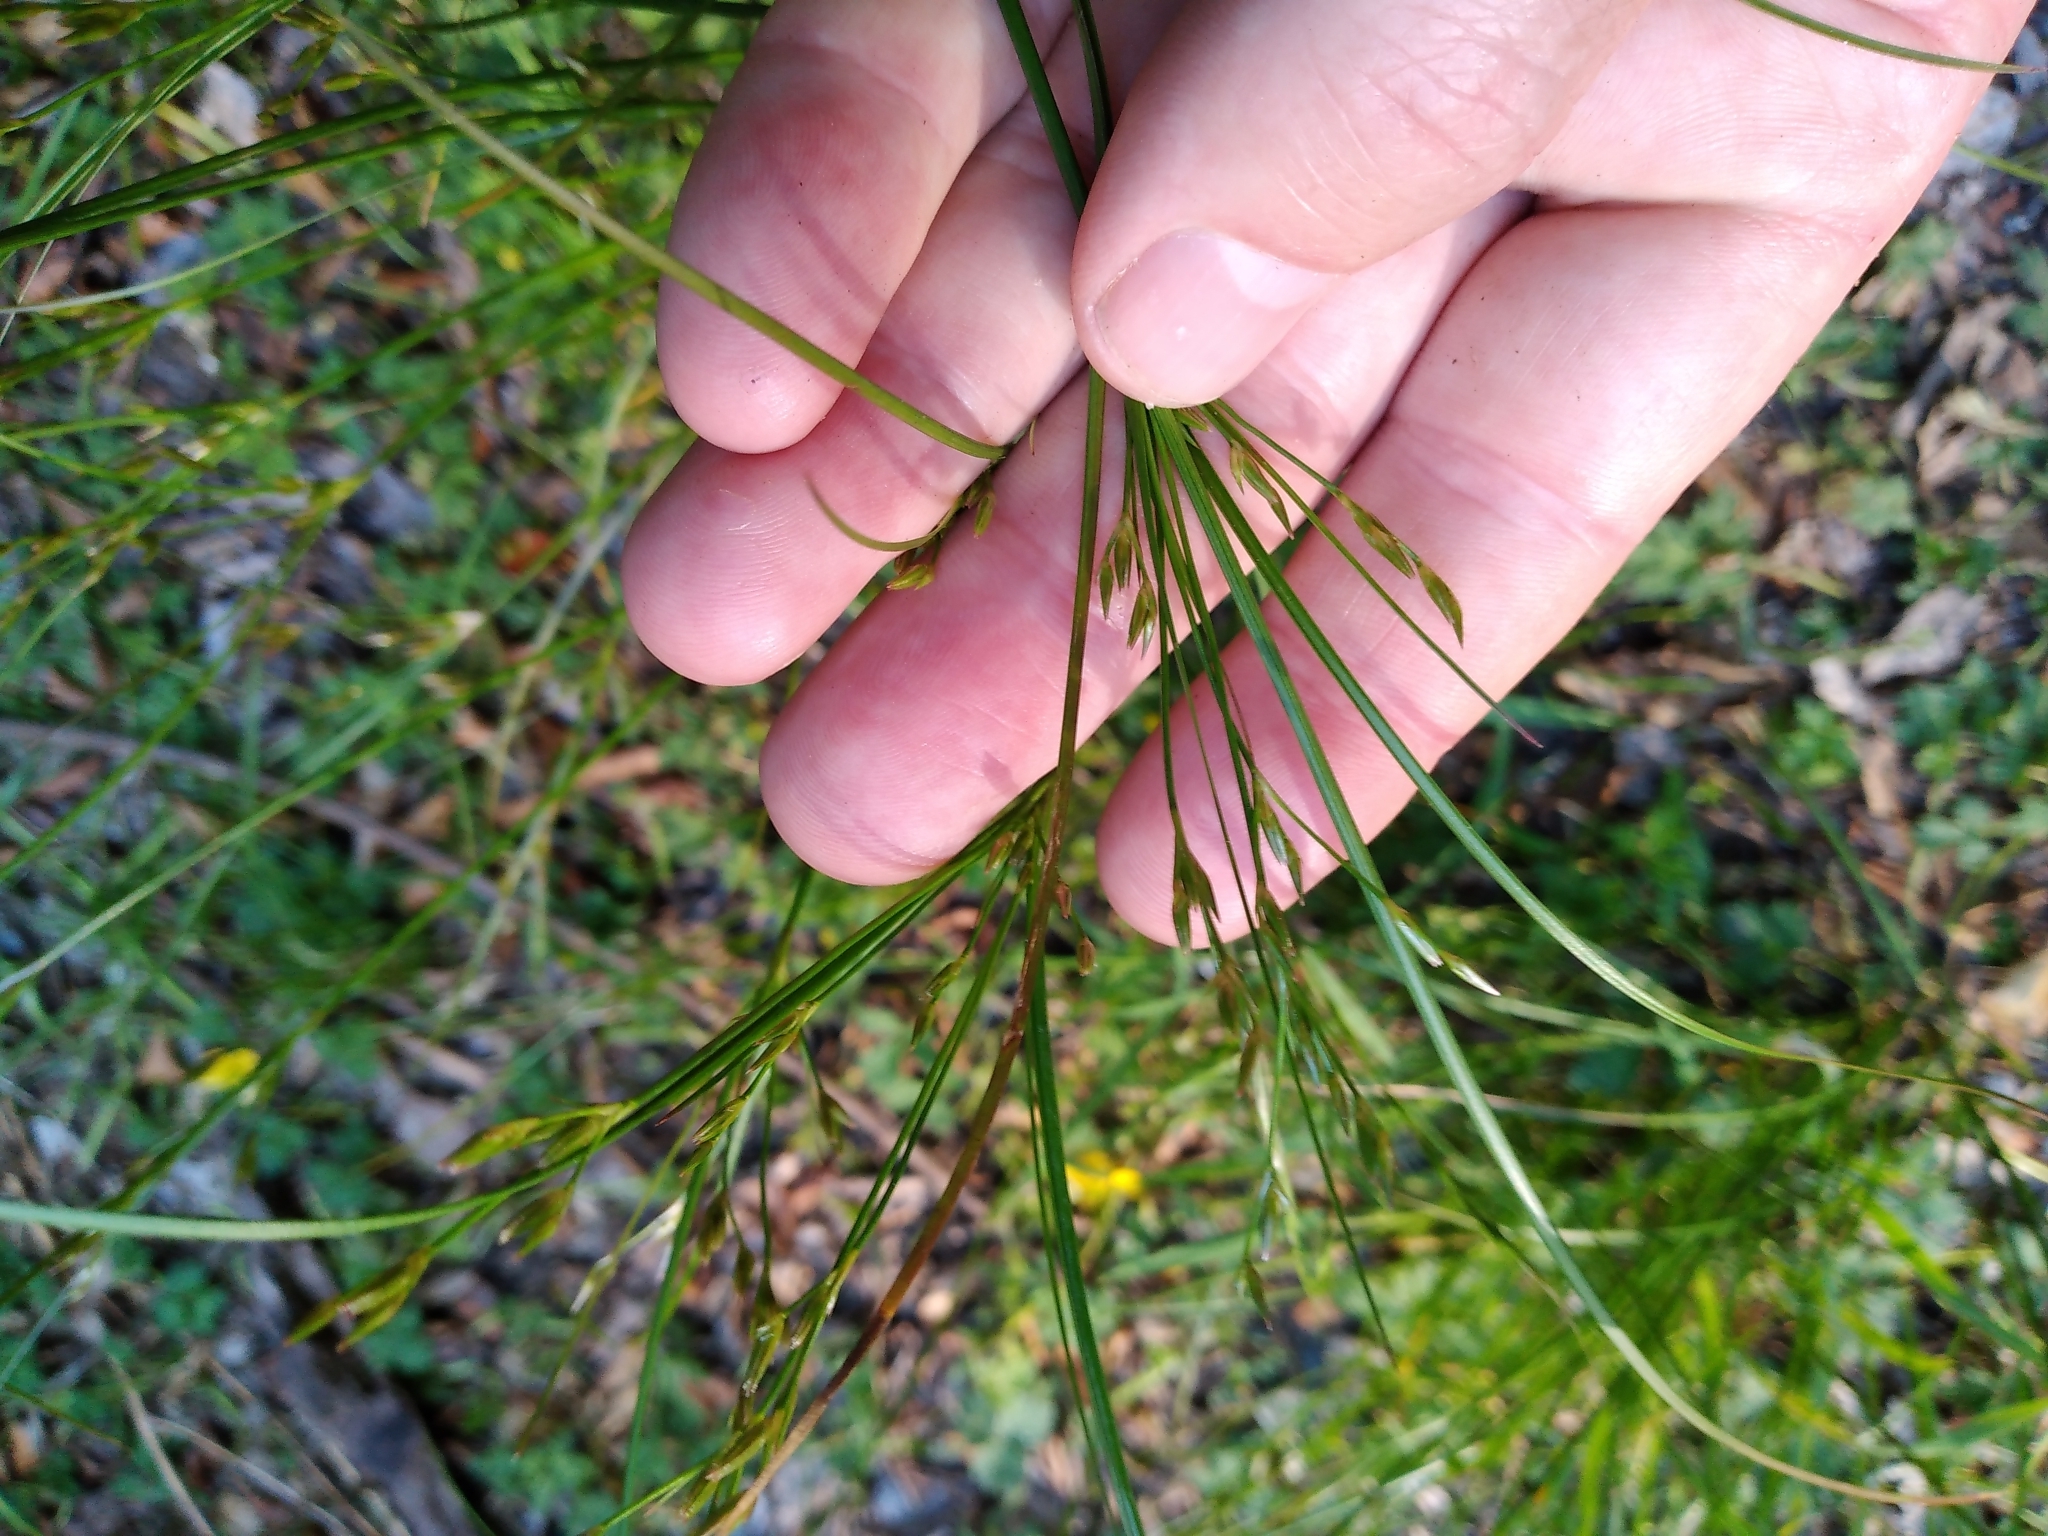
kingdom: Plantae
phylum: Tracheophyta
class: Liliopsida
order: Poales
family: Juncaceae
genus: Juncus
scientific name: Juncus tenuis
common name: Slender rush
